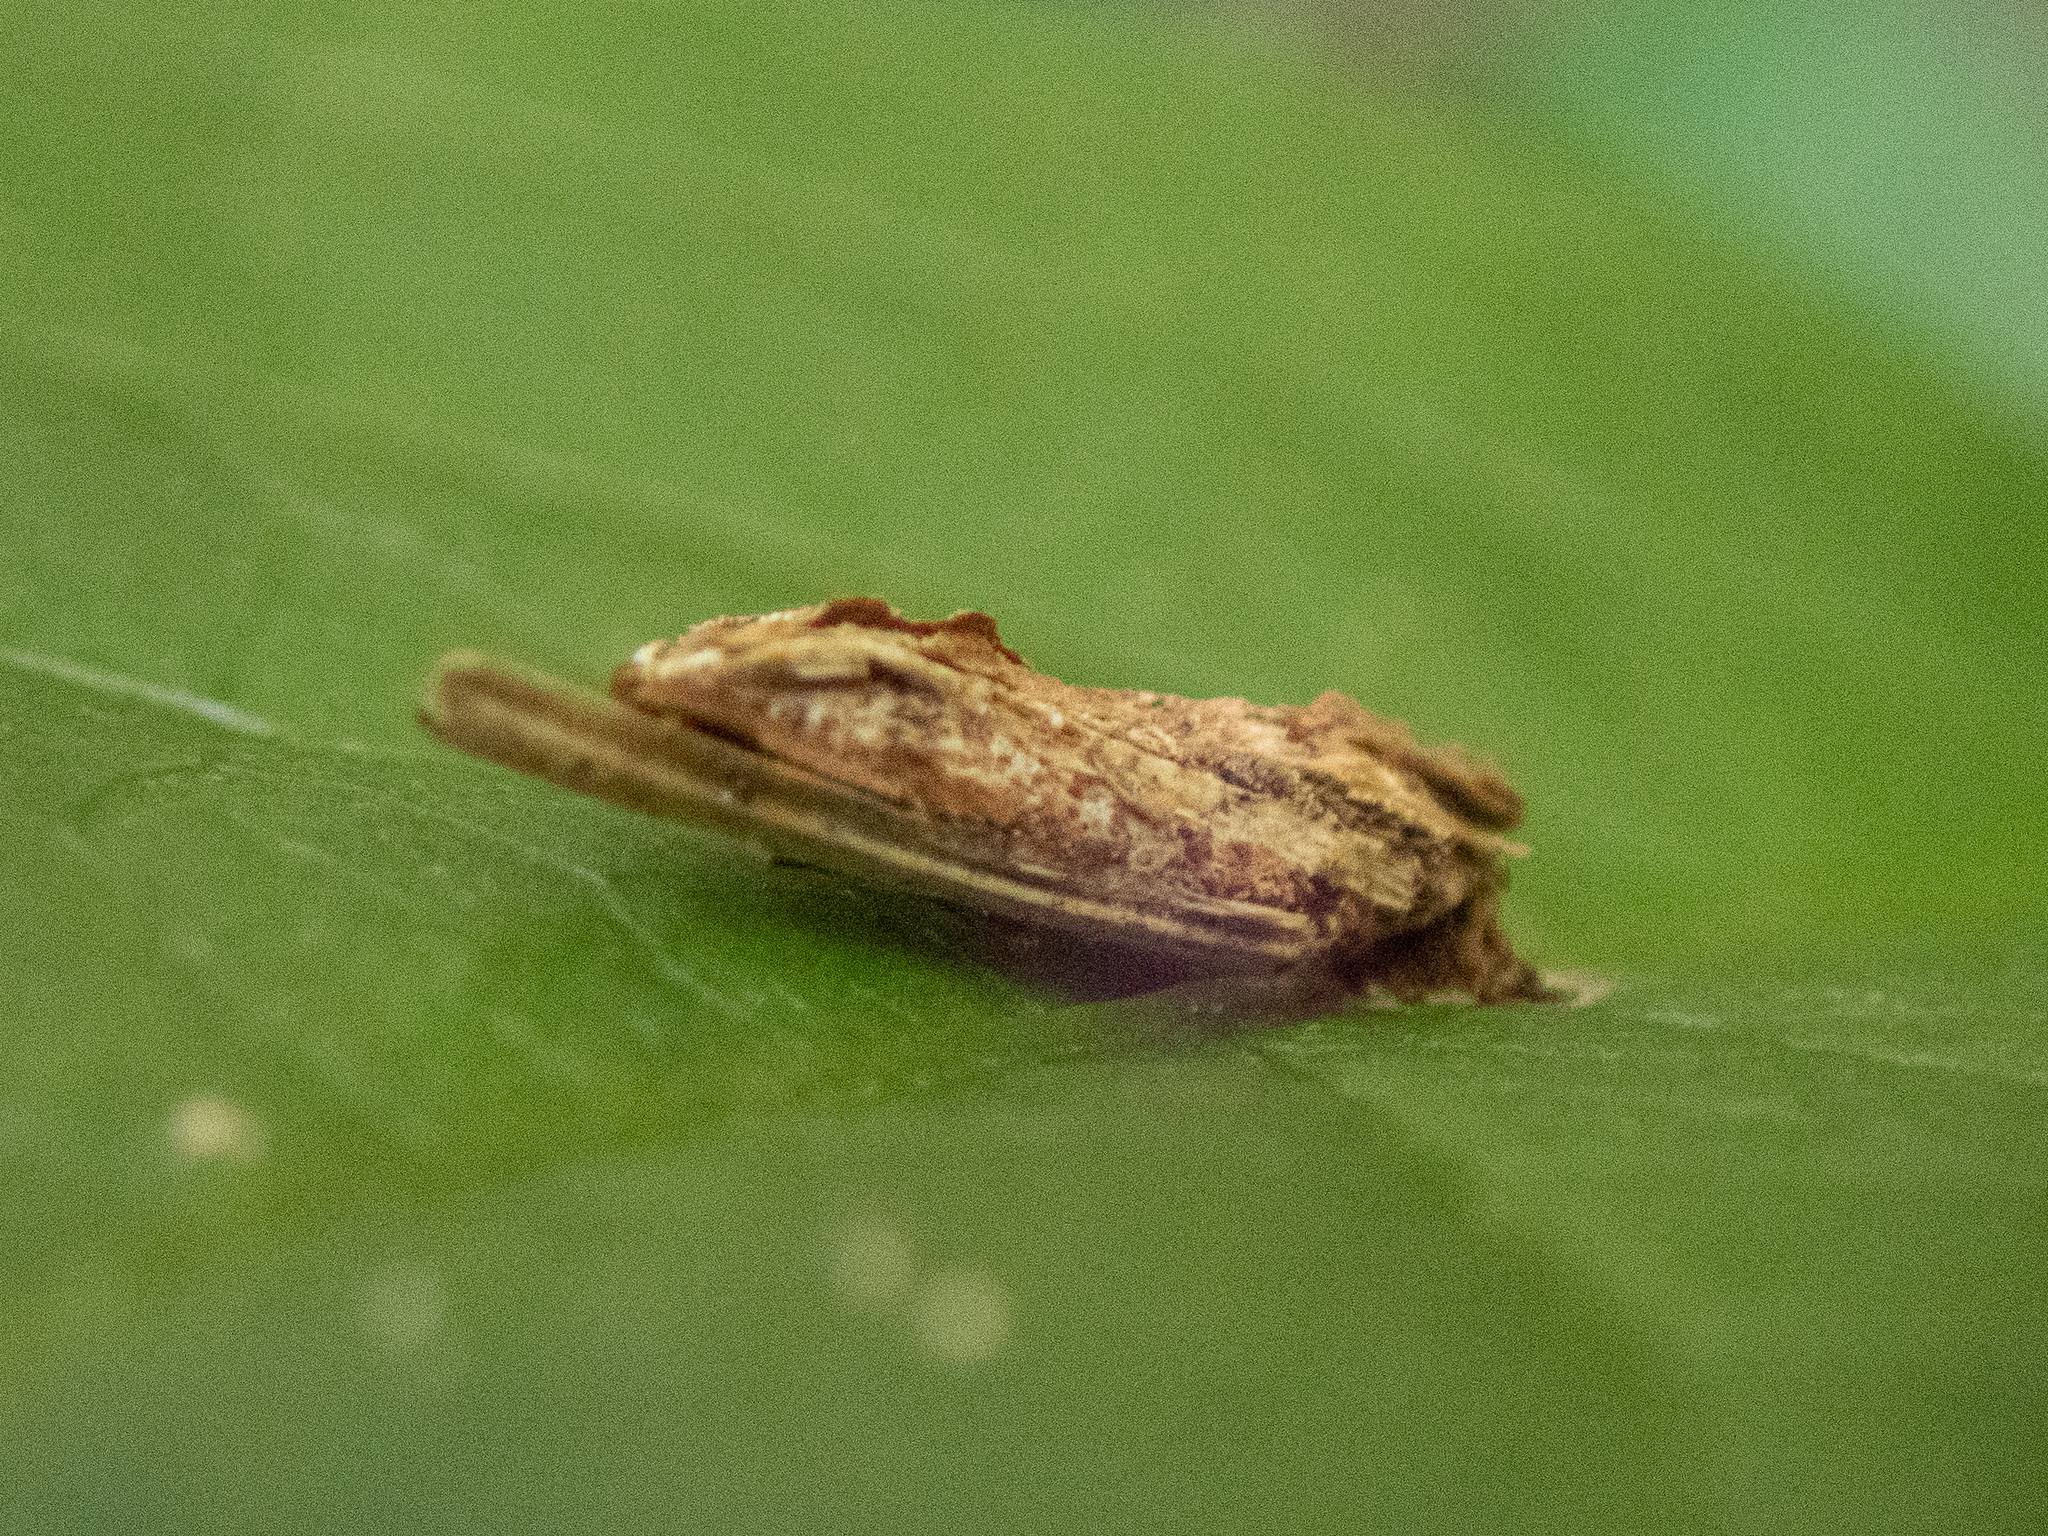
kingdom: Animalia
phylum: Arthropoda
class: Insecta
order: Lepidoptera
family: Psychidae
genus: Psyche
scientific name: Psyche casta
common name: Common sweep
